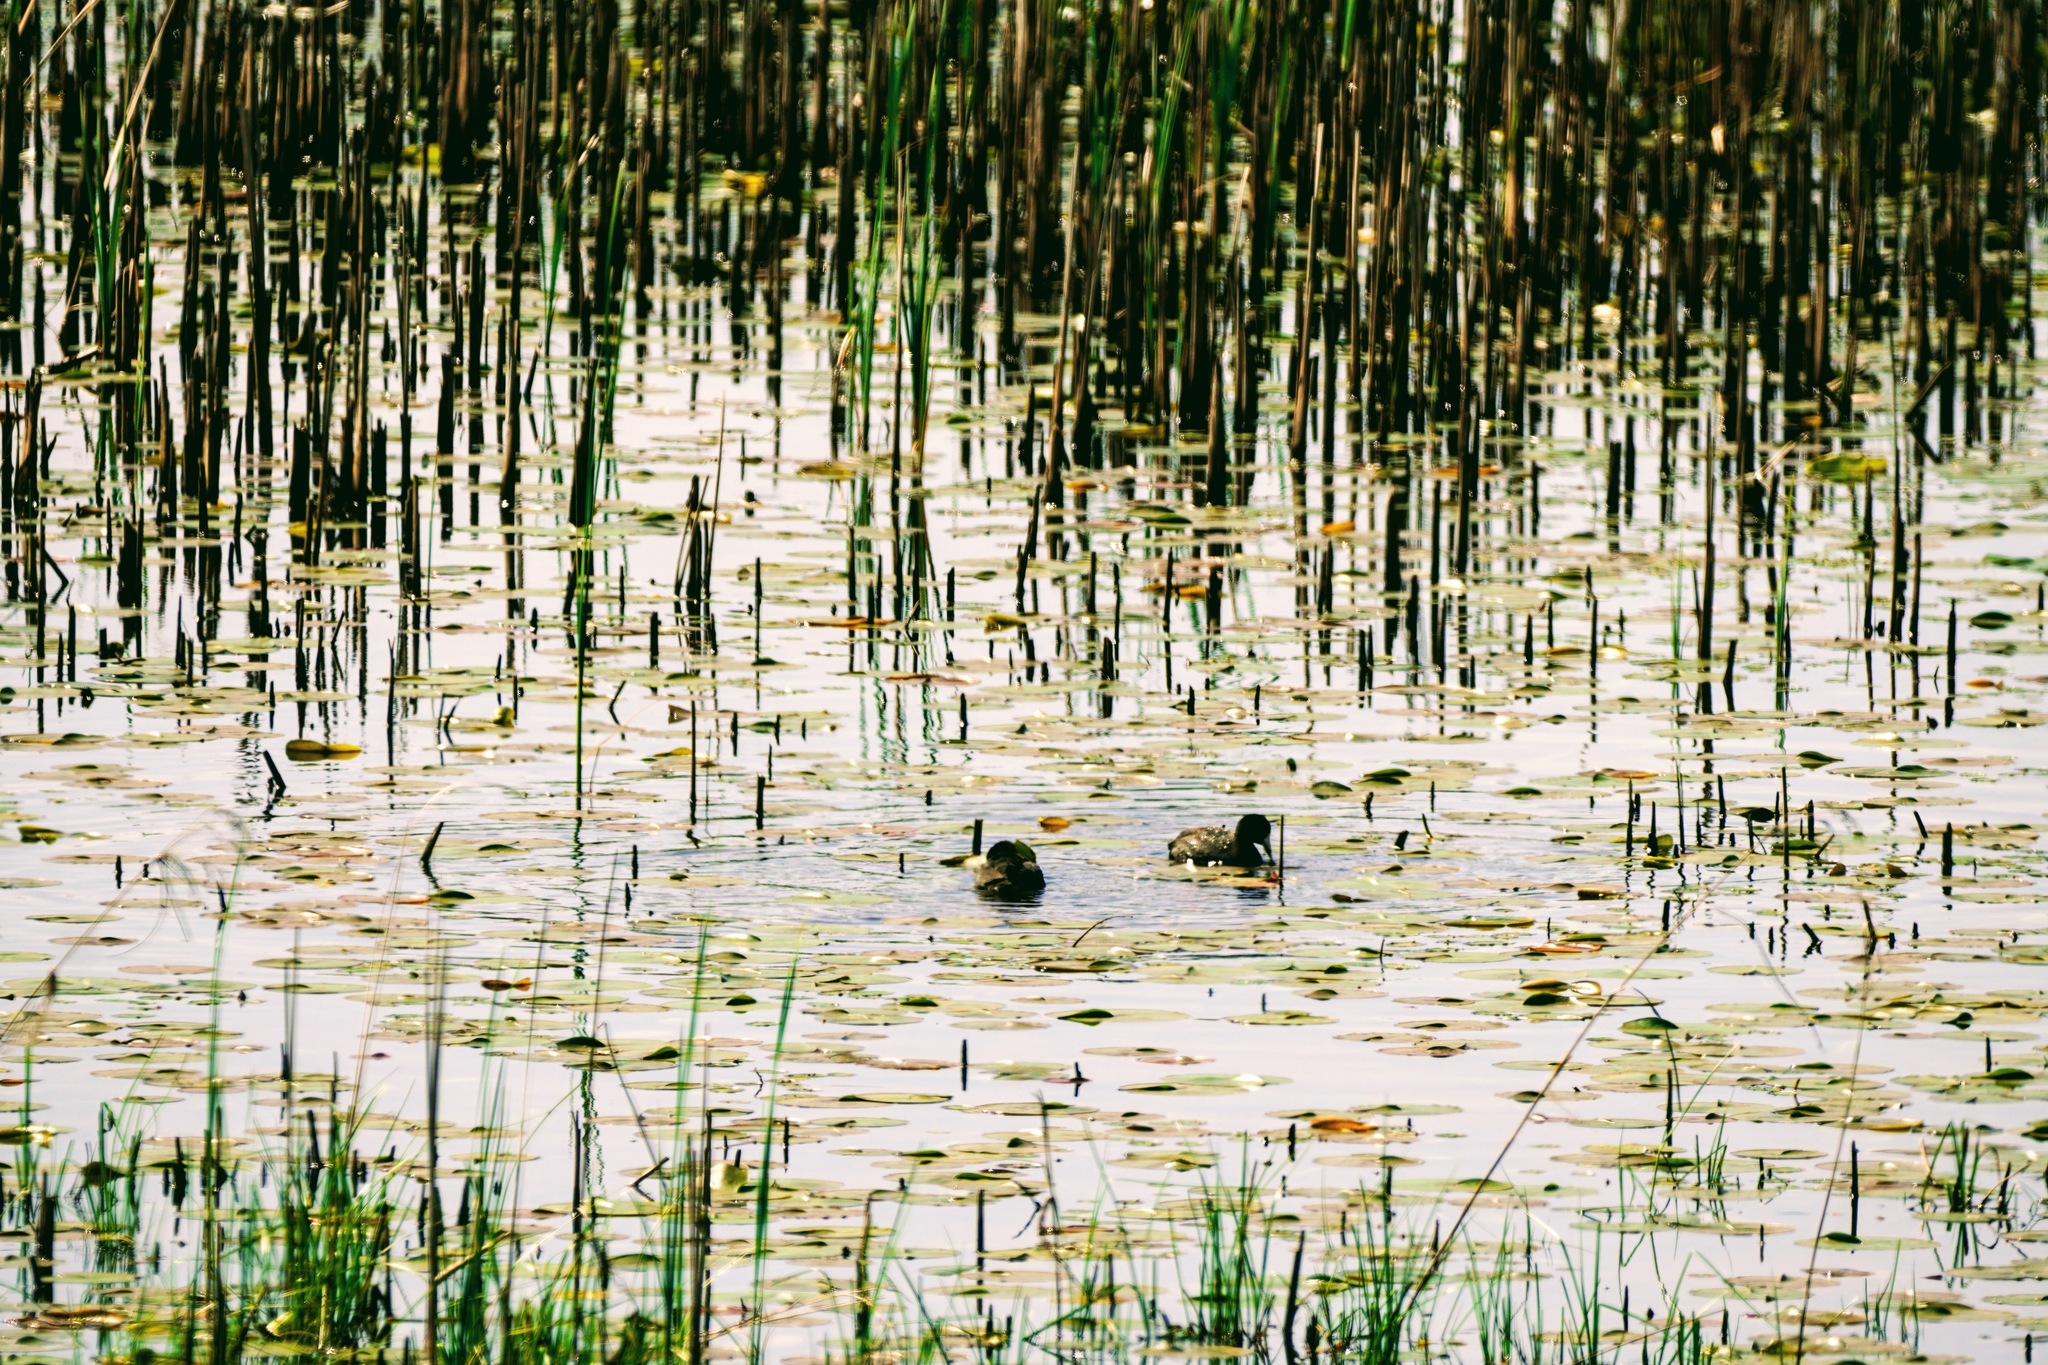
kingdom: Animalia
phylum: Chordata
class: Aves
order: Gruiformes
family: Rallidae
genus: Fulica
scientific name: Fulica americana
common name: American coot
